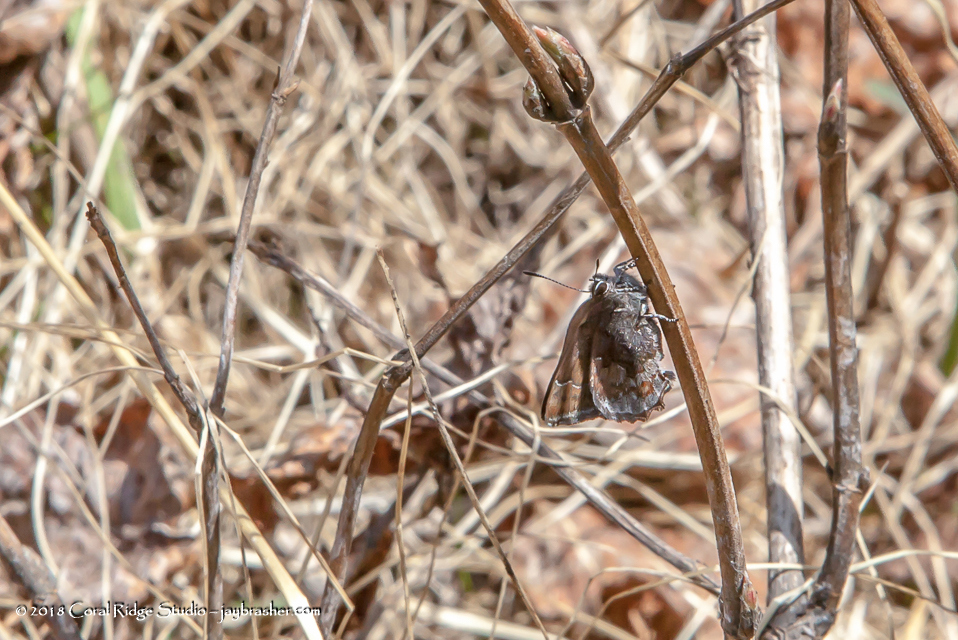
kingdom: Animalia
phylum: Arthropoda
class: Insecta
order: Lepidoptera
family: Lycaenidae
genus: Callophrys
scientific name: Callophrys polios
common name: Hoary elfin
